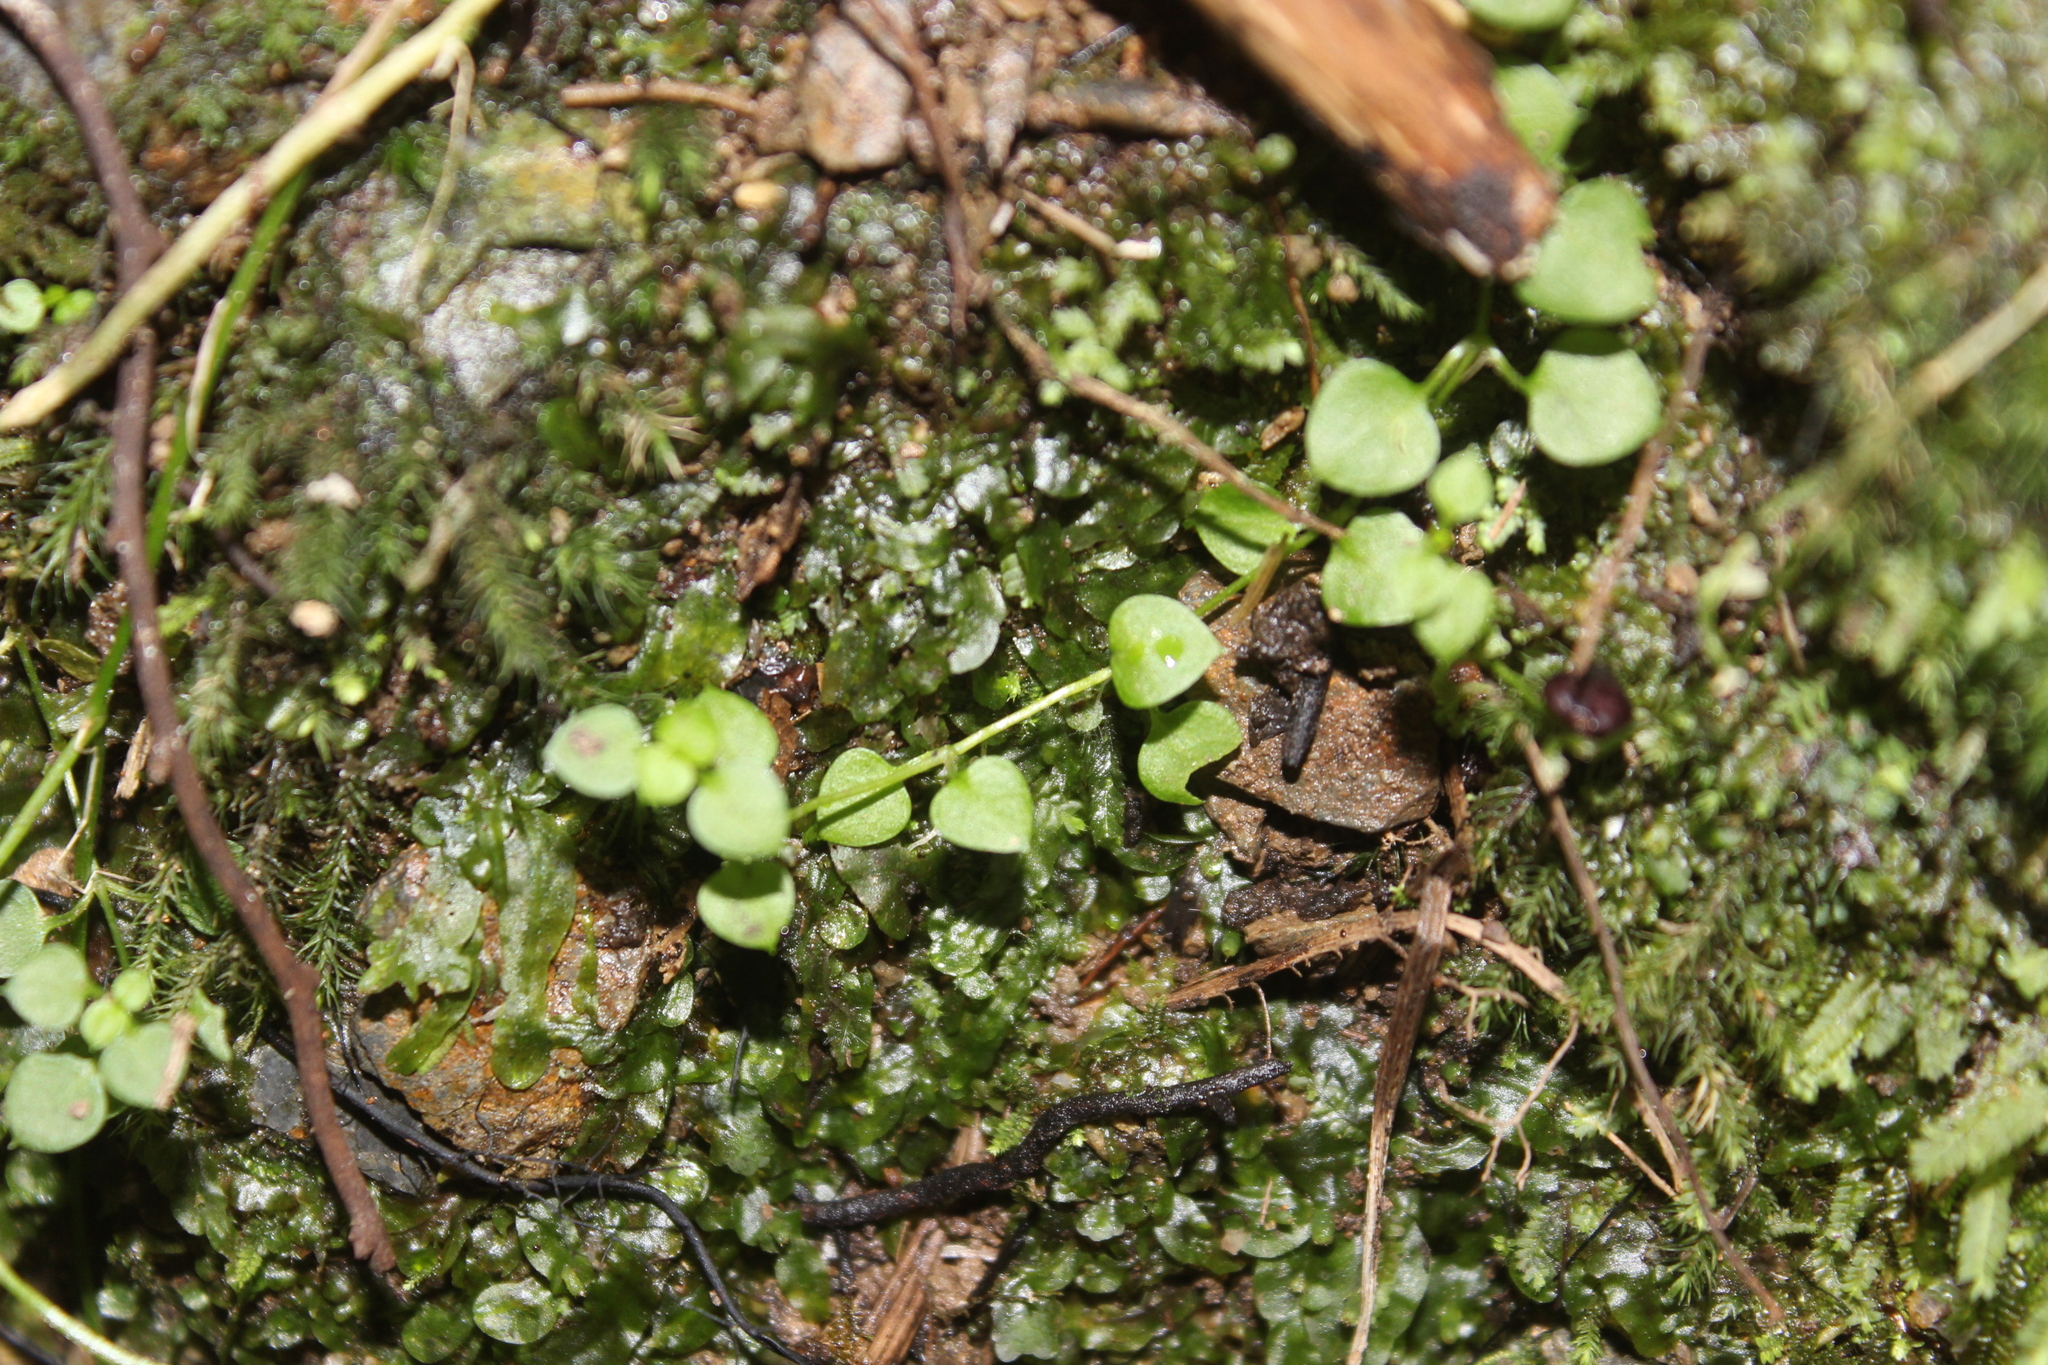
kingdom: Plantae
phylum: Tracheophyta
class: Magnoliopsida
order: Caryophyllales
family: Caryophyllaceae
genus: Stellaria
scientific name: Stellaria parviflora
